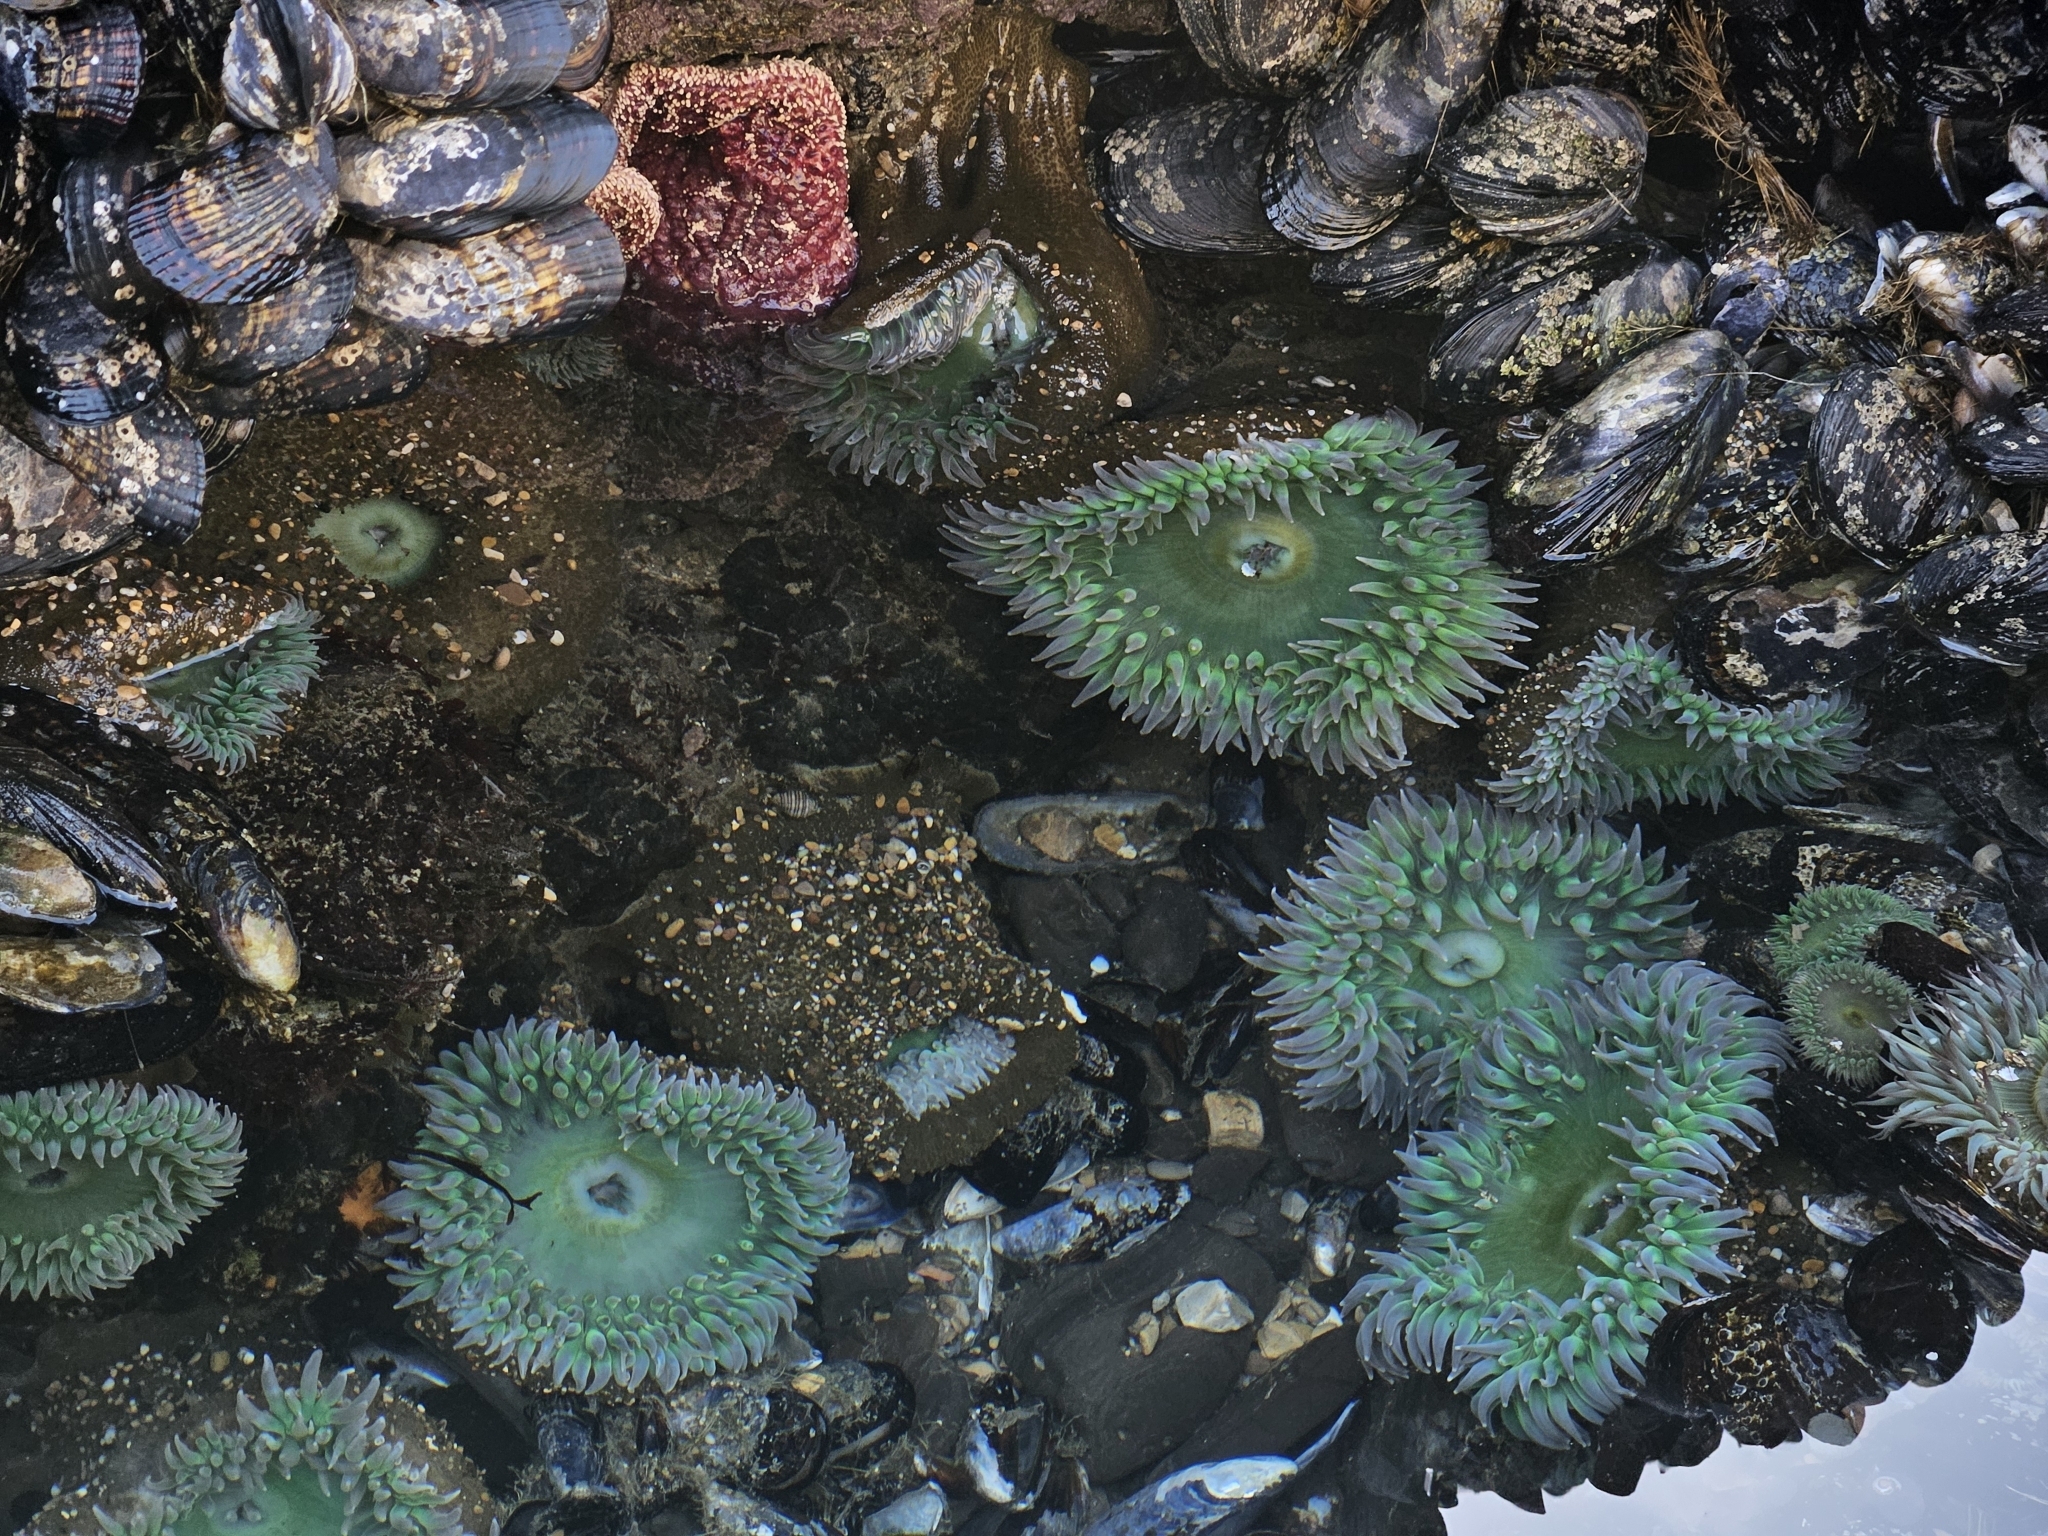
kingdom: Animalia
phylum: Cnidaria
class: Anthozoa
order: Actiniaria
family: Actiniidae
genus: Anthopleura
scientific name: Anthopleura xanthogrammica
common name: Giant green anemone
